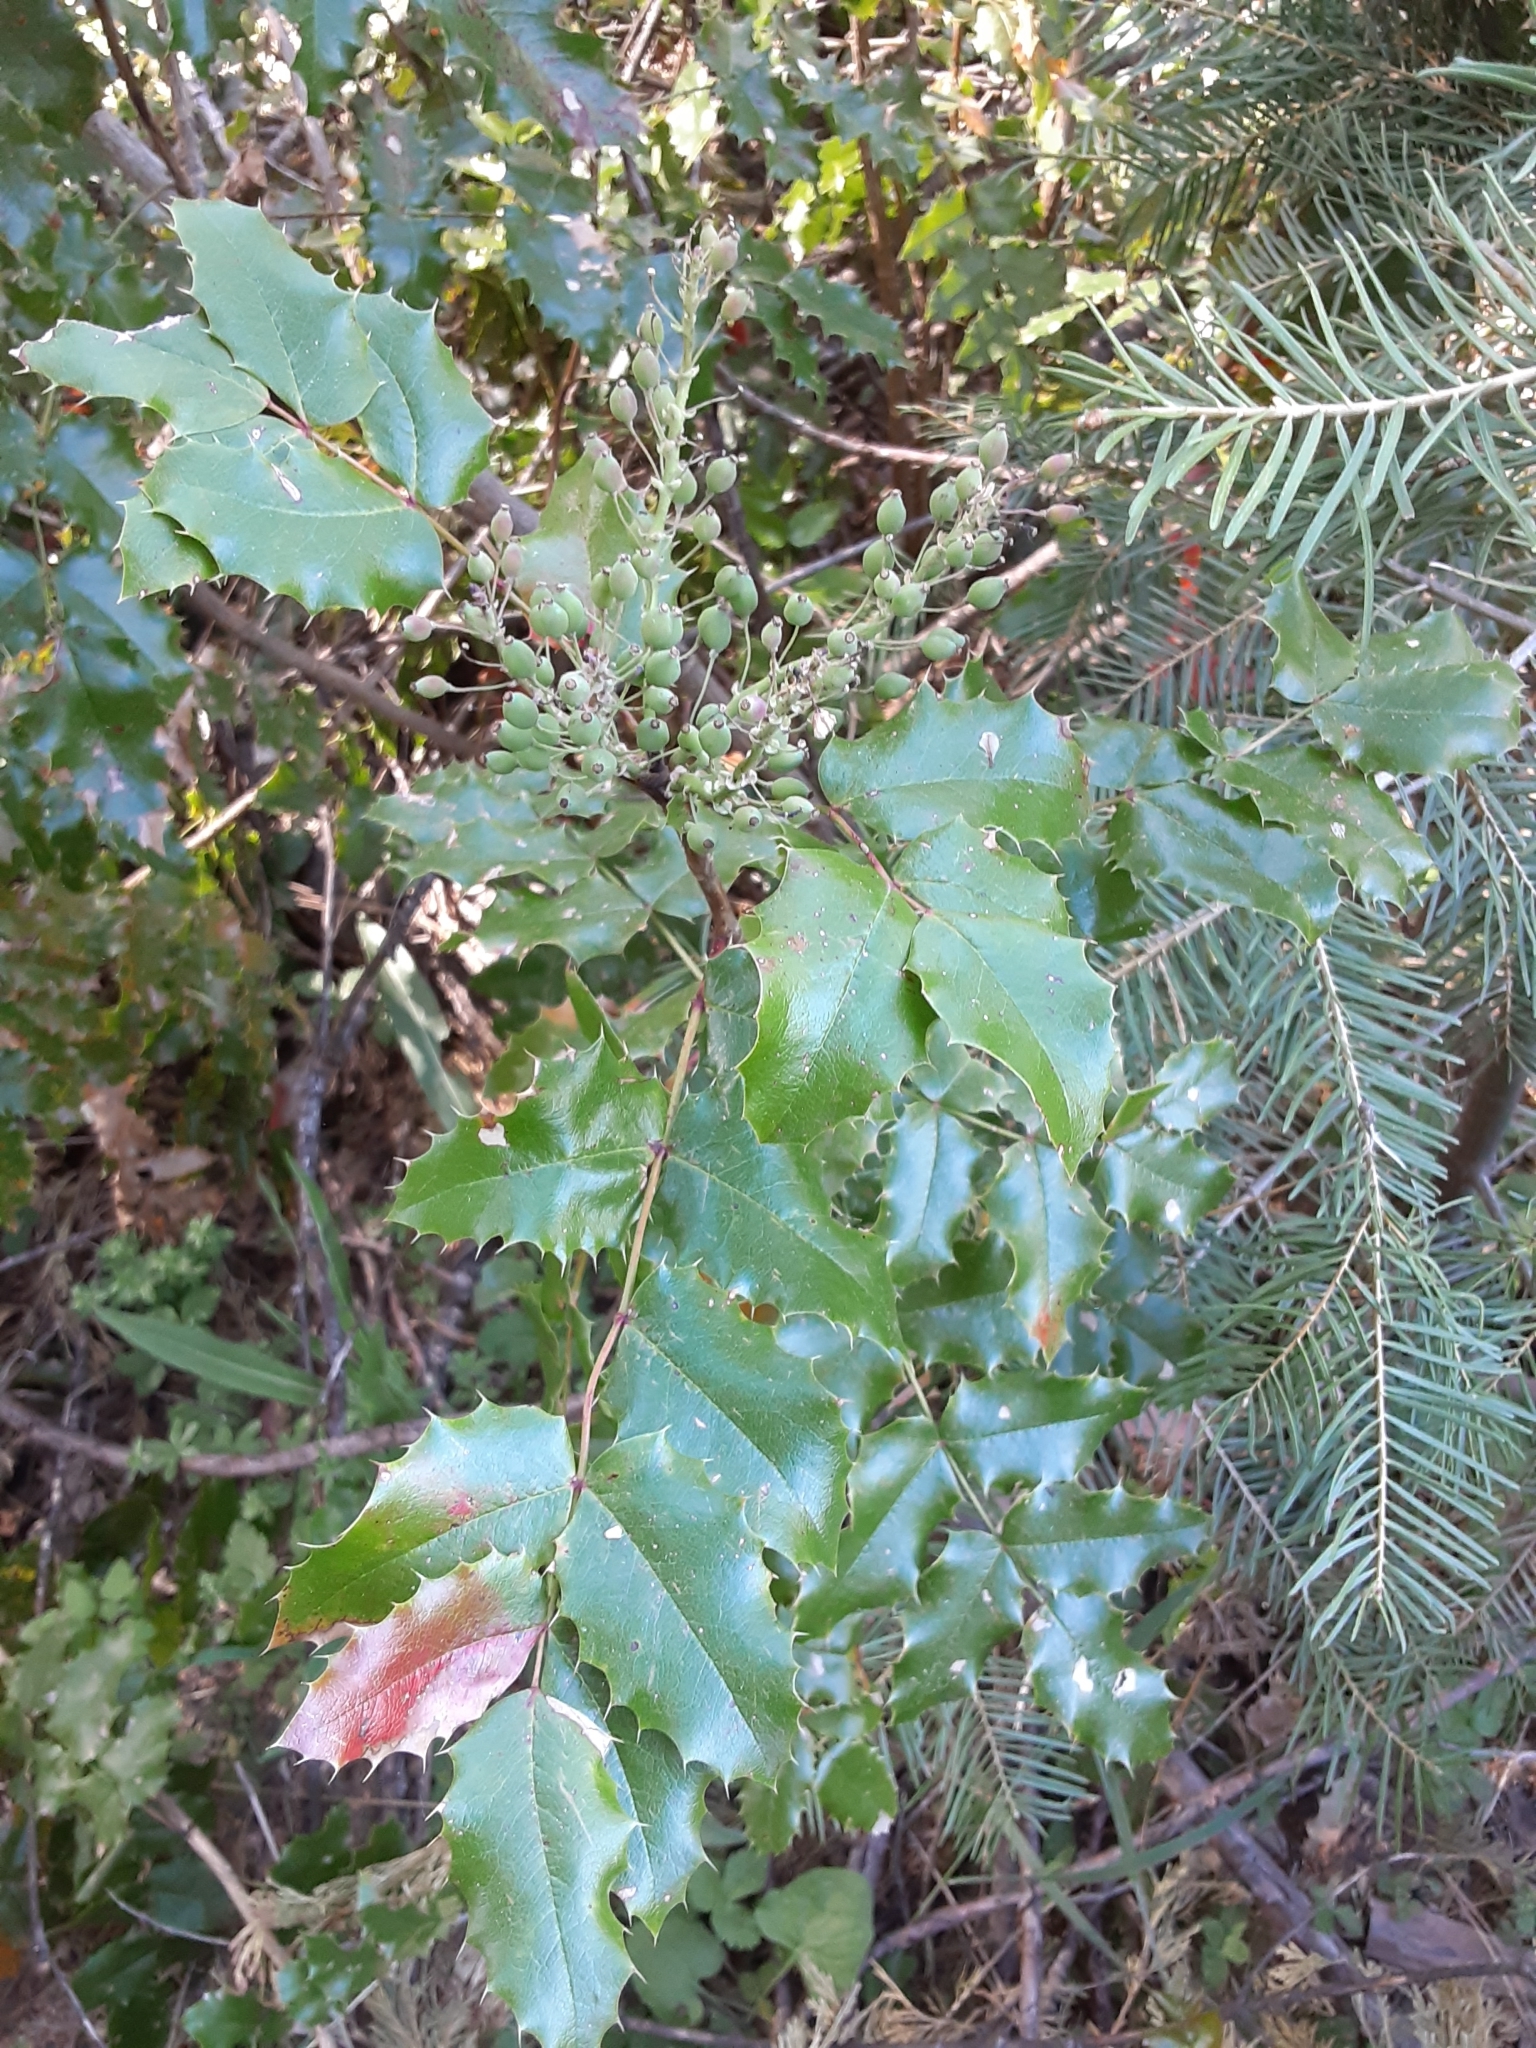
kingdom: Plantae
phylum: Tracheophyta
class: Magnoliopsida
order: Ranunculales
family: Berberidaceae
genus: Mahonia
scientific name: Mahonia aquifolium
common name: Oregon-grape
